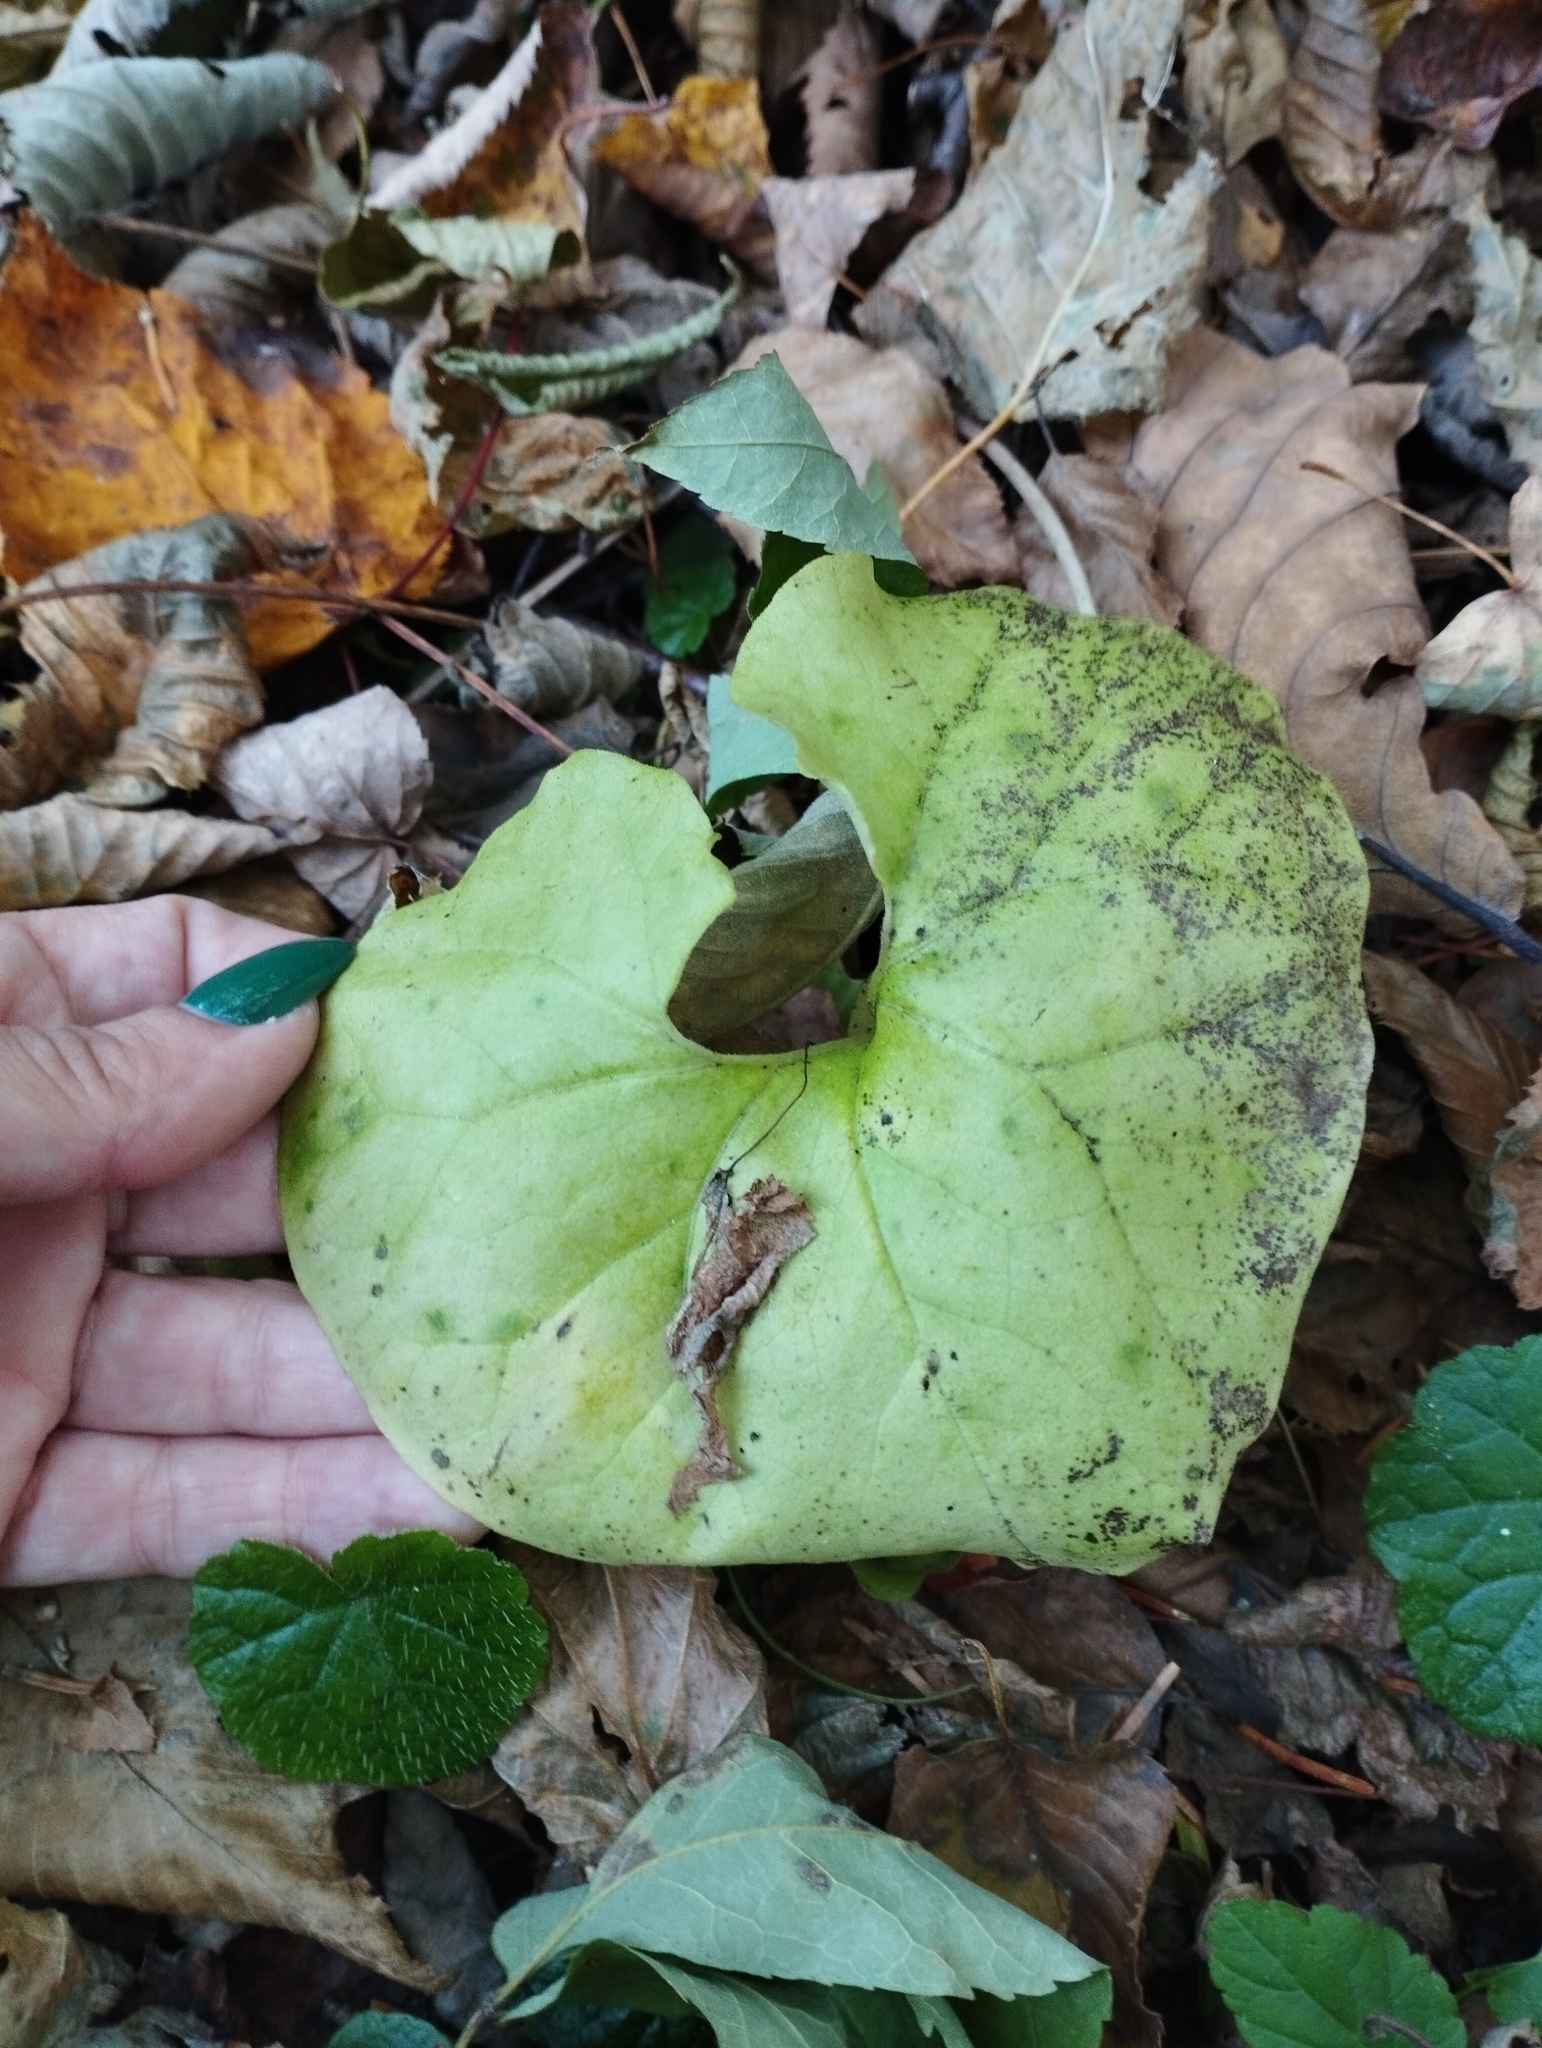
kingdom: Plantae
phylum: Tracheophyta
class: Magnoliopsida
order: Piperales
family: Aristolochiaceae
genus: Asarum
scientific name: Asarum sieboldii
